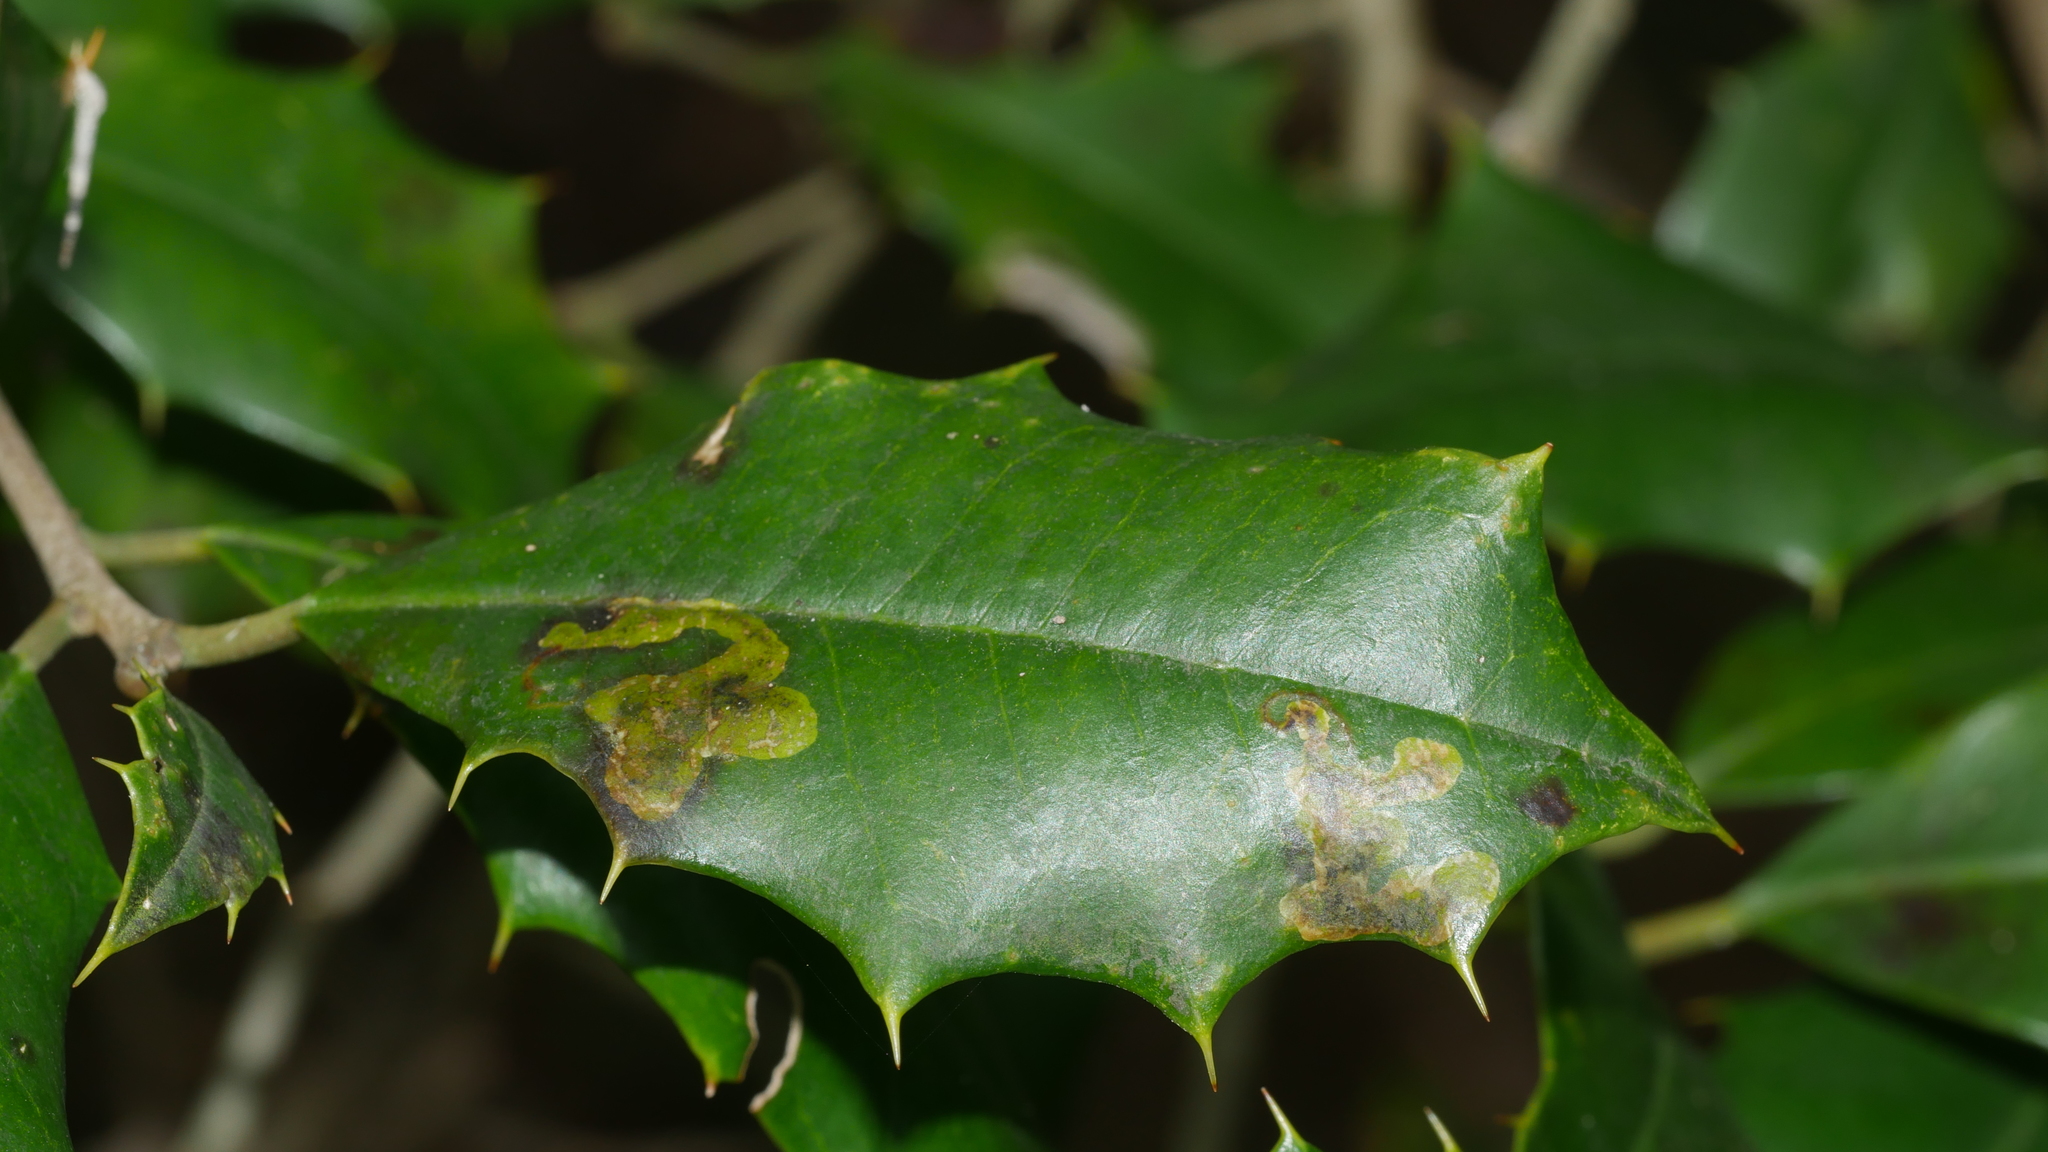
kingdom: Animalia
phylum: Arthropoda
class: Insecta
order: Diptera
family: Agromyzidae
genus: Phytomyza
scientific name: Phytomyza ilicicola
